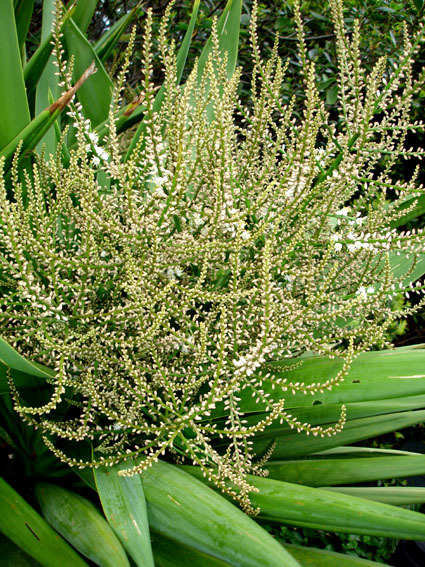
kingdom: Plantae
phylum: Tracheophyta
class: Liliopsida
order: Asparagales
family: Asparagaceae
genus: Cordyline
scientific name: Cordyline obtecta
